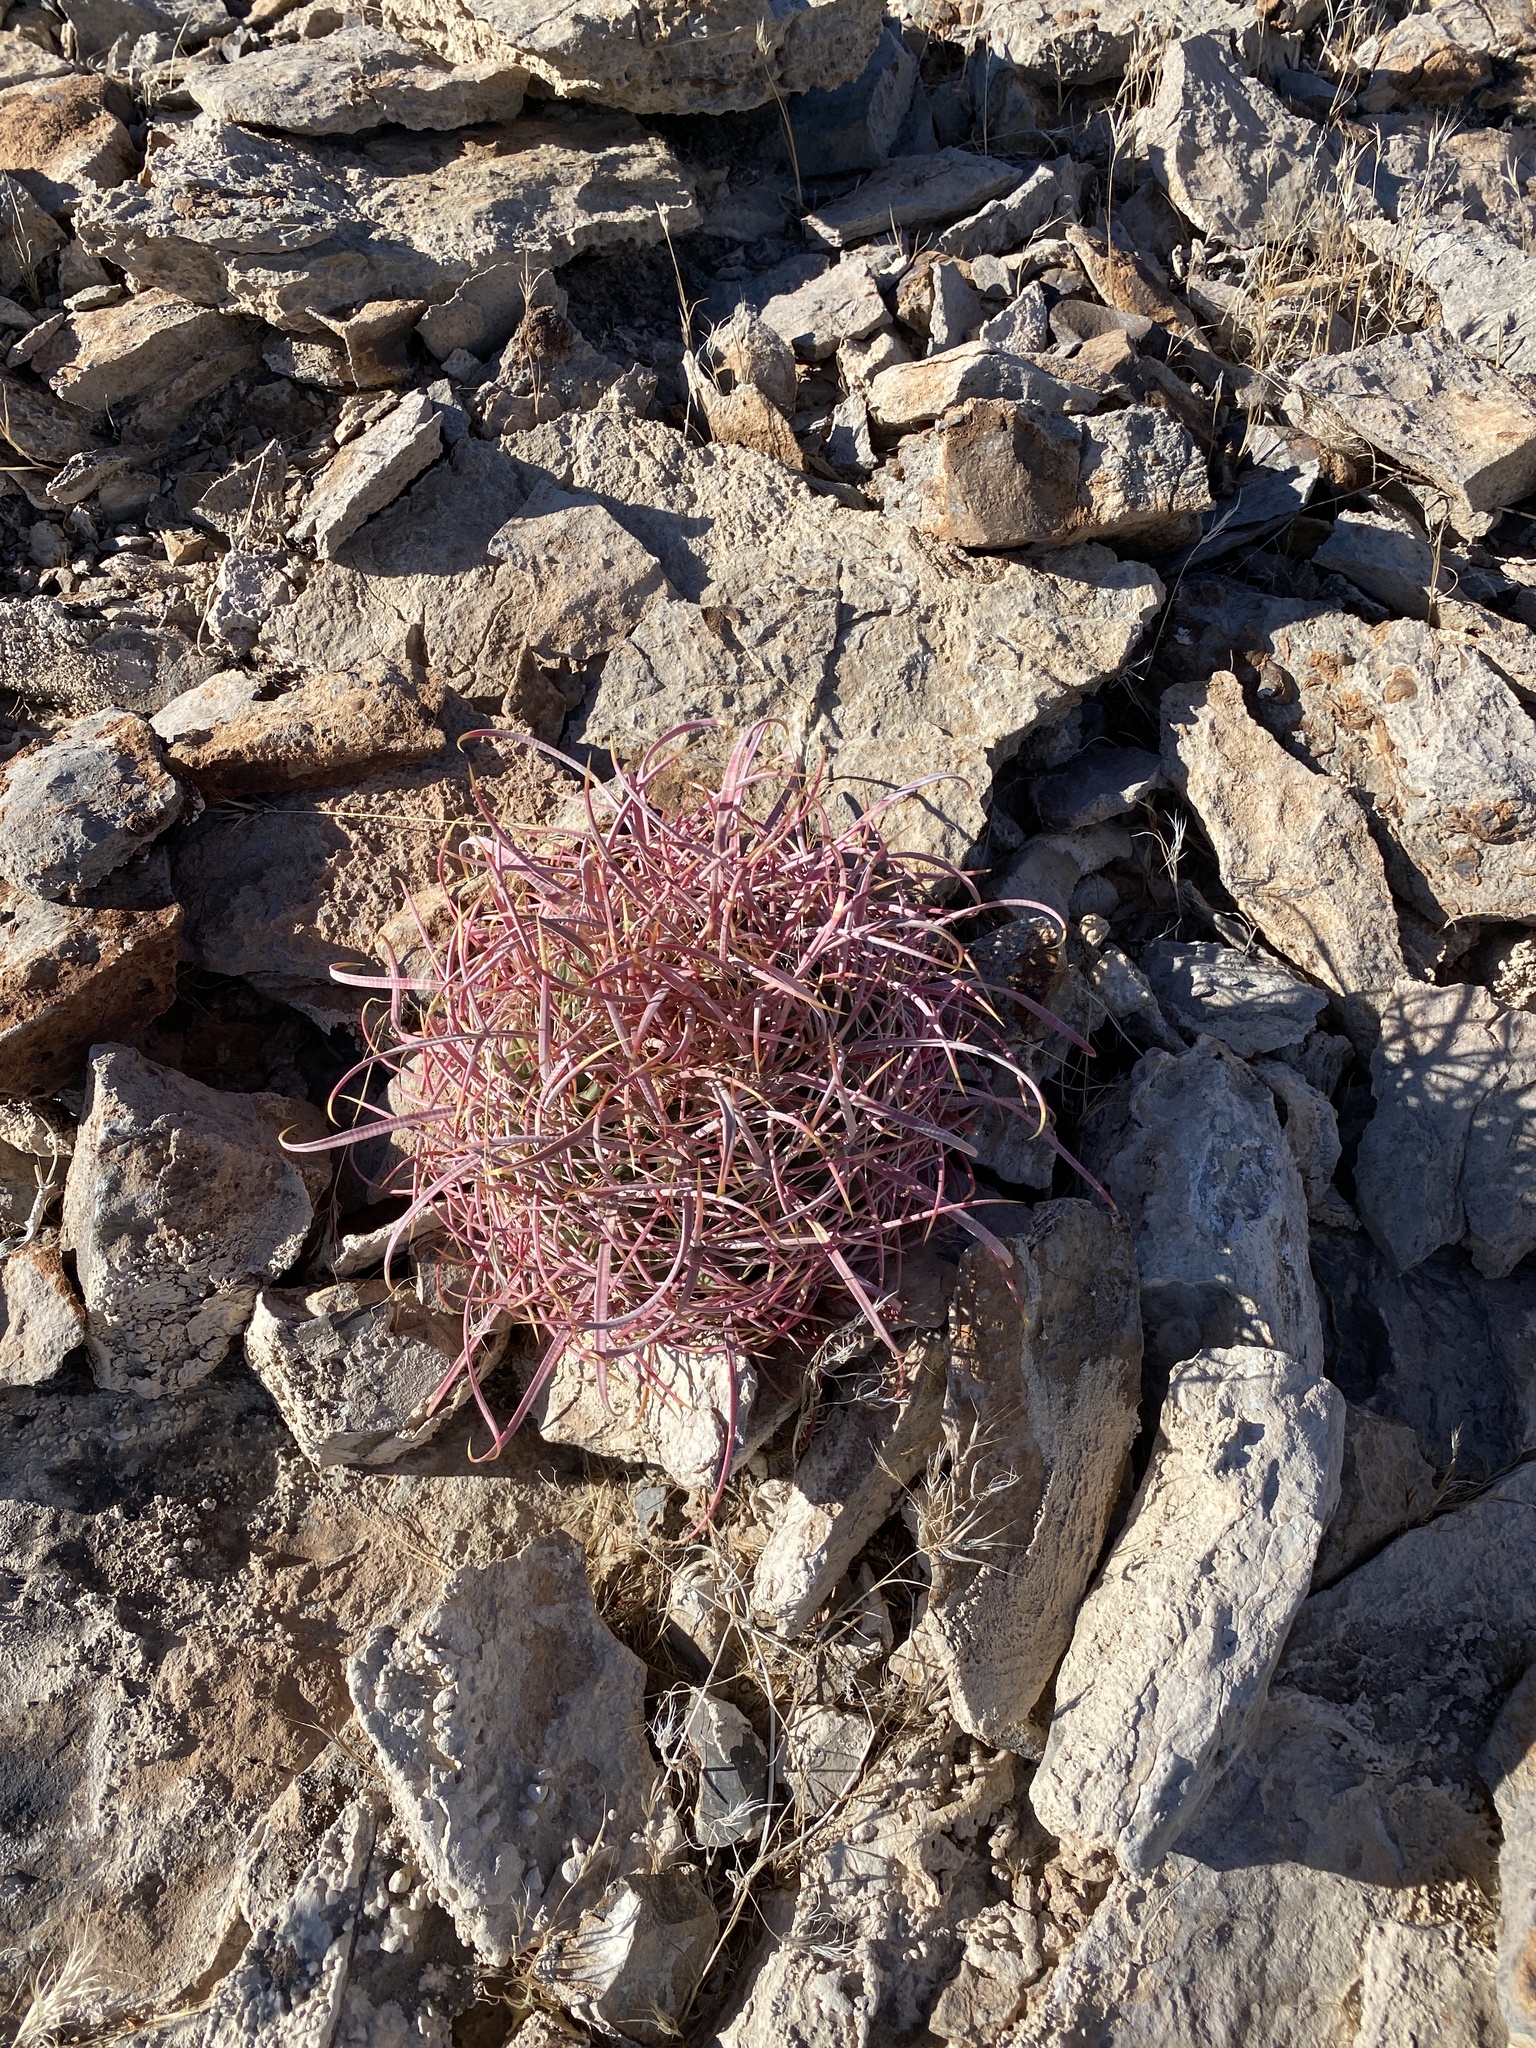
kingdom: Plantae
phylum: Tracheophyta
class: Magnoliopsida
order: Caryophyllales
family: Cactaceae
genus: Ferocactus
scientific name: Ferocactus cylindraceus
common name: California barrel cactus
